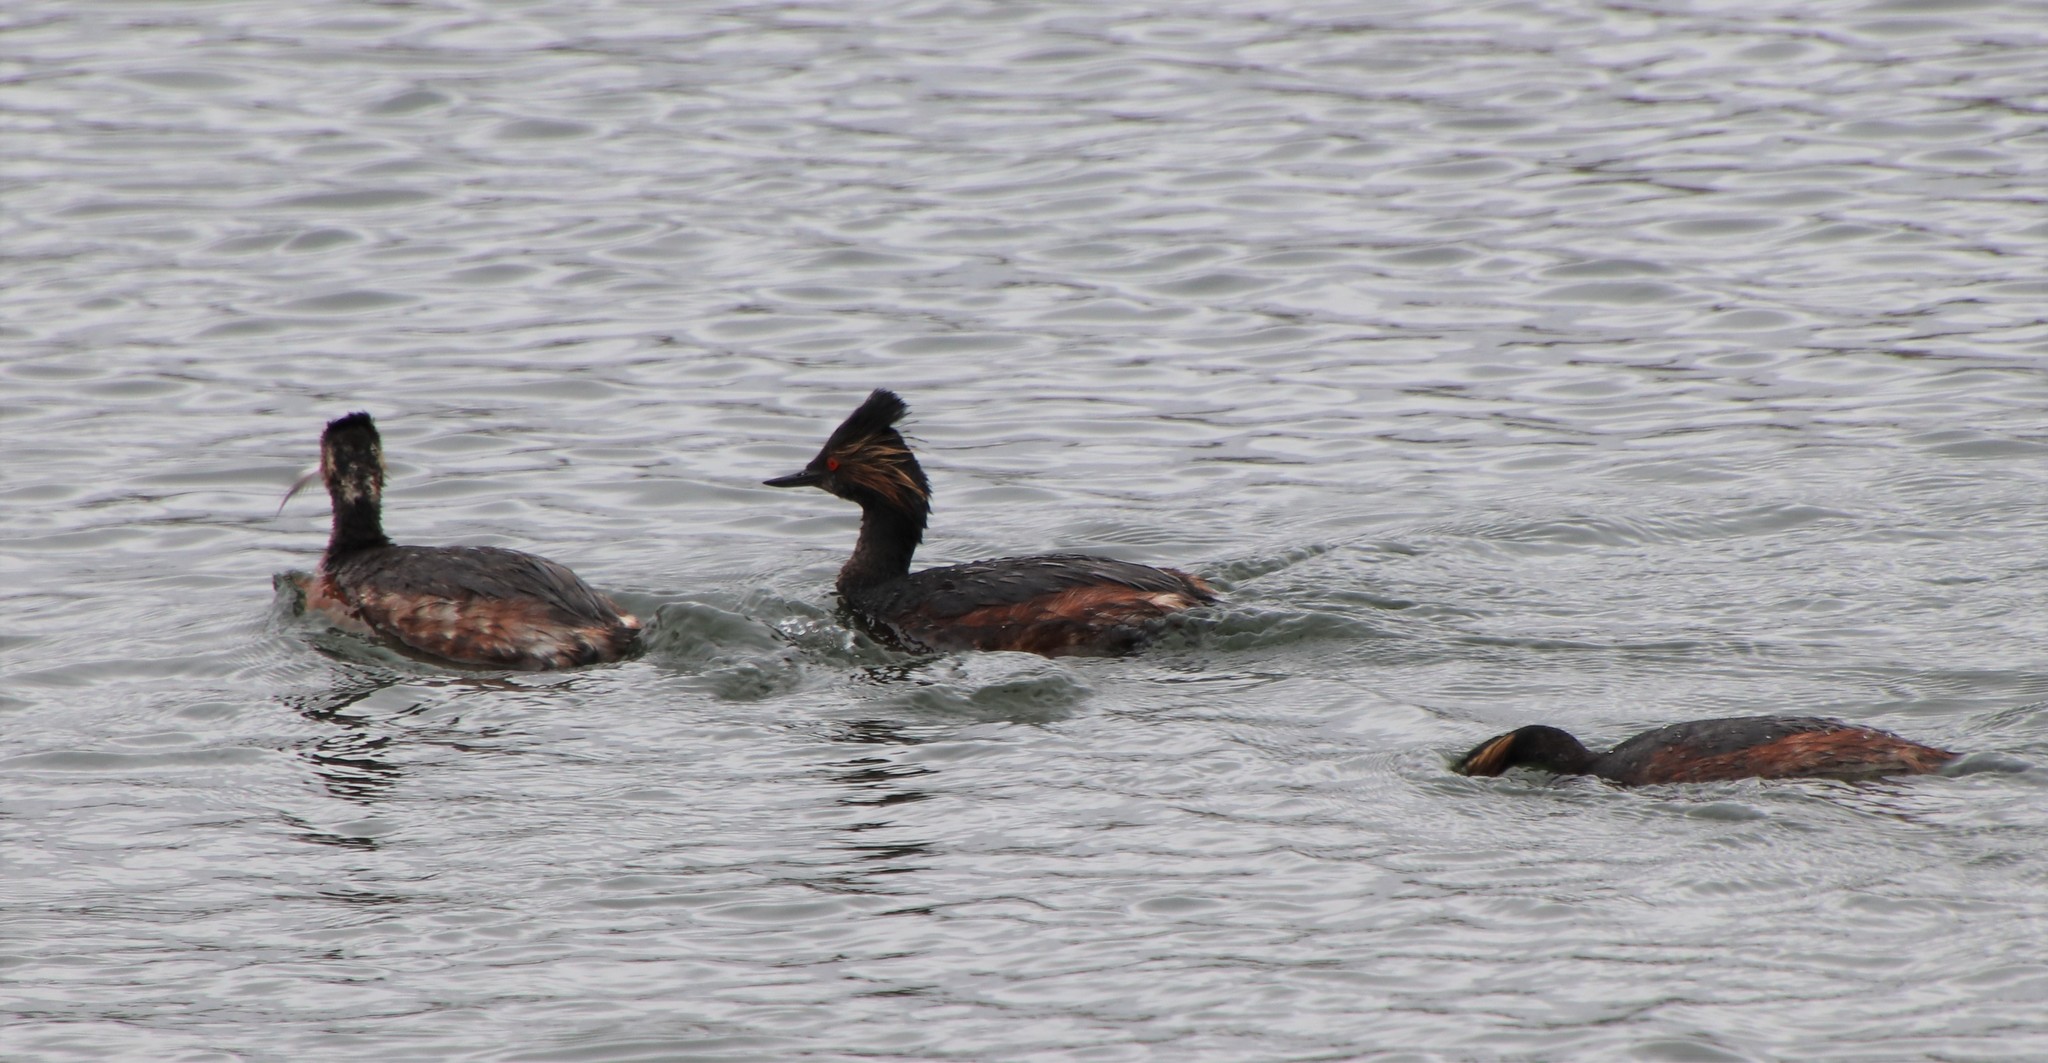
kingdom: Animalia
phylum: Chordata
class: Aves
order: Podicipediformes
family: Podicipedidae
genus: Podiceps
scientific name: Podiceps nigricollis
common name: Black-necked grebe
